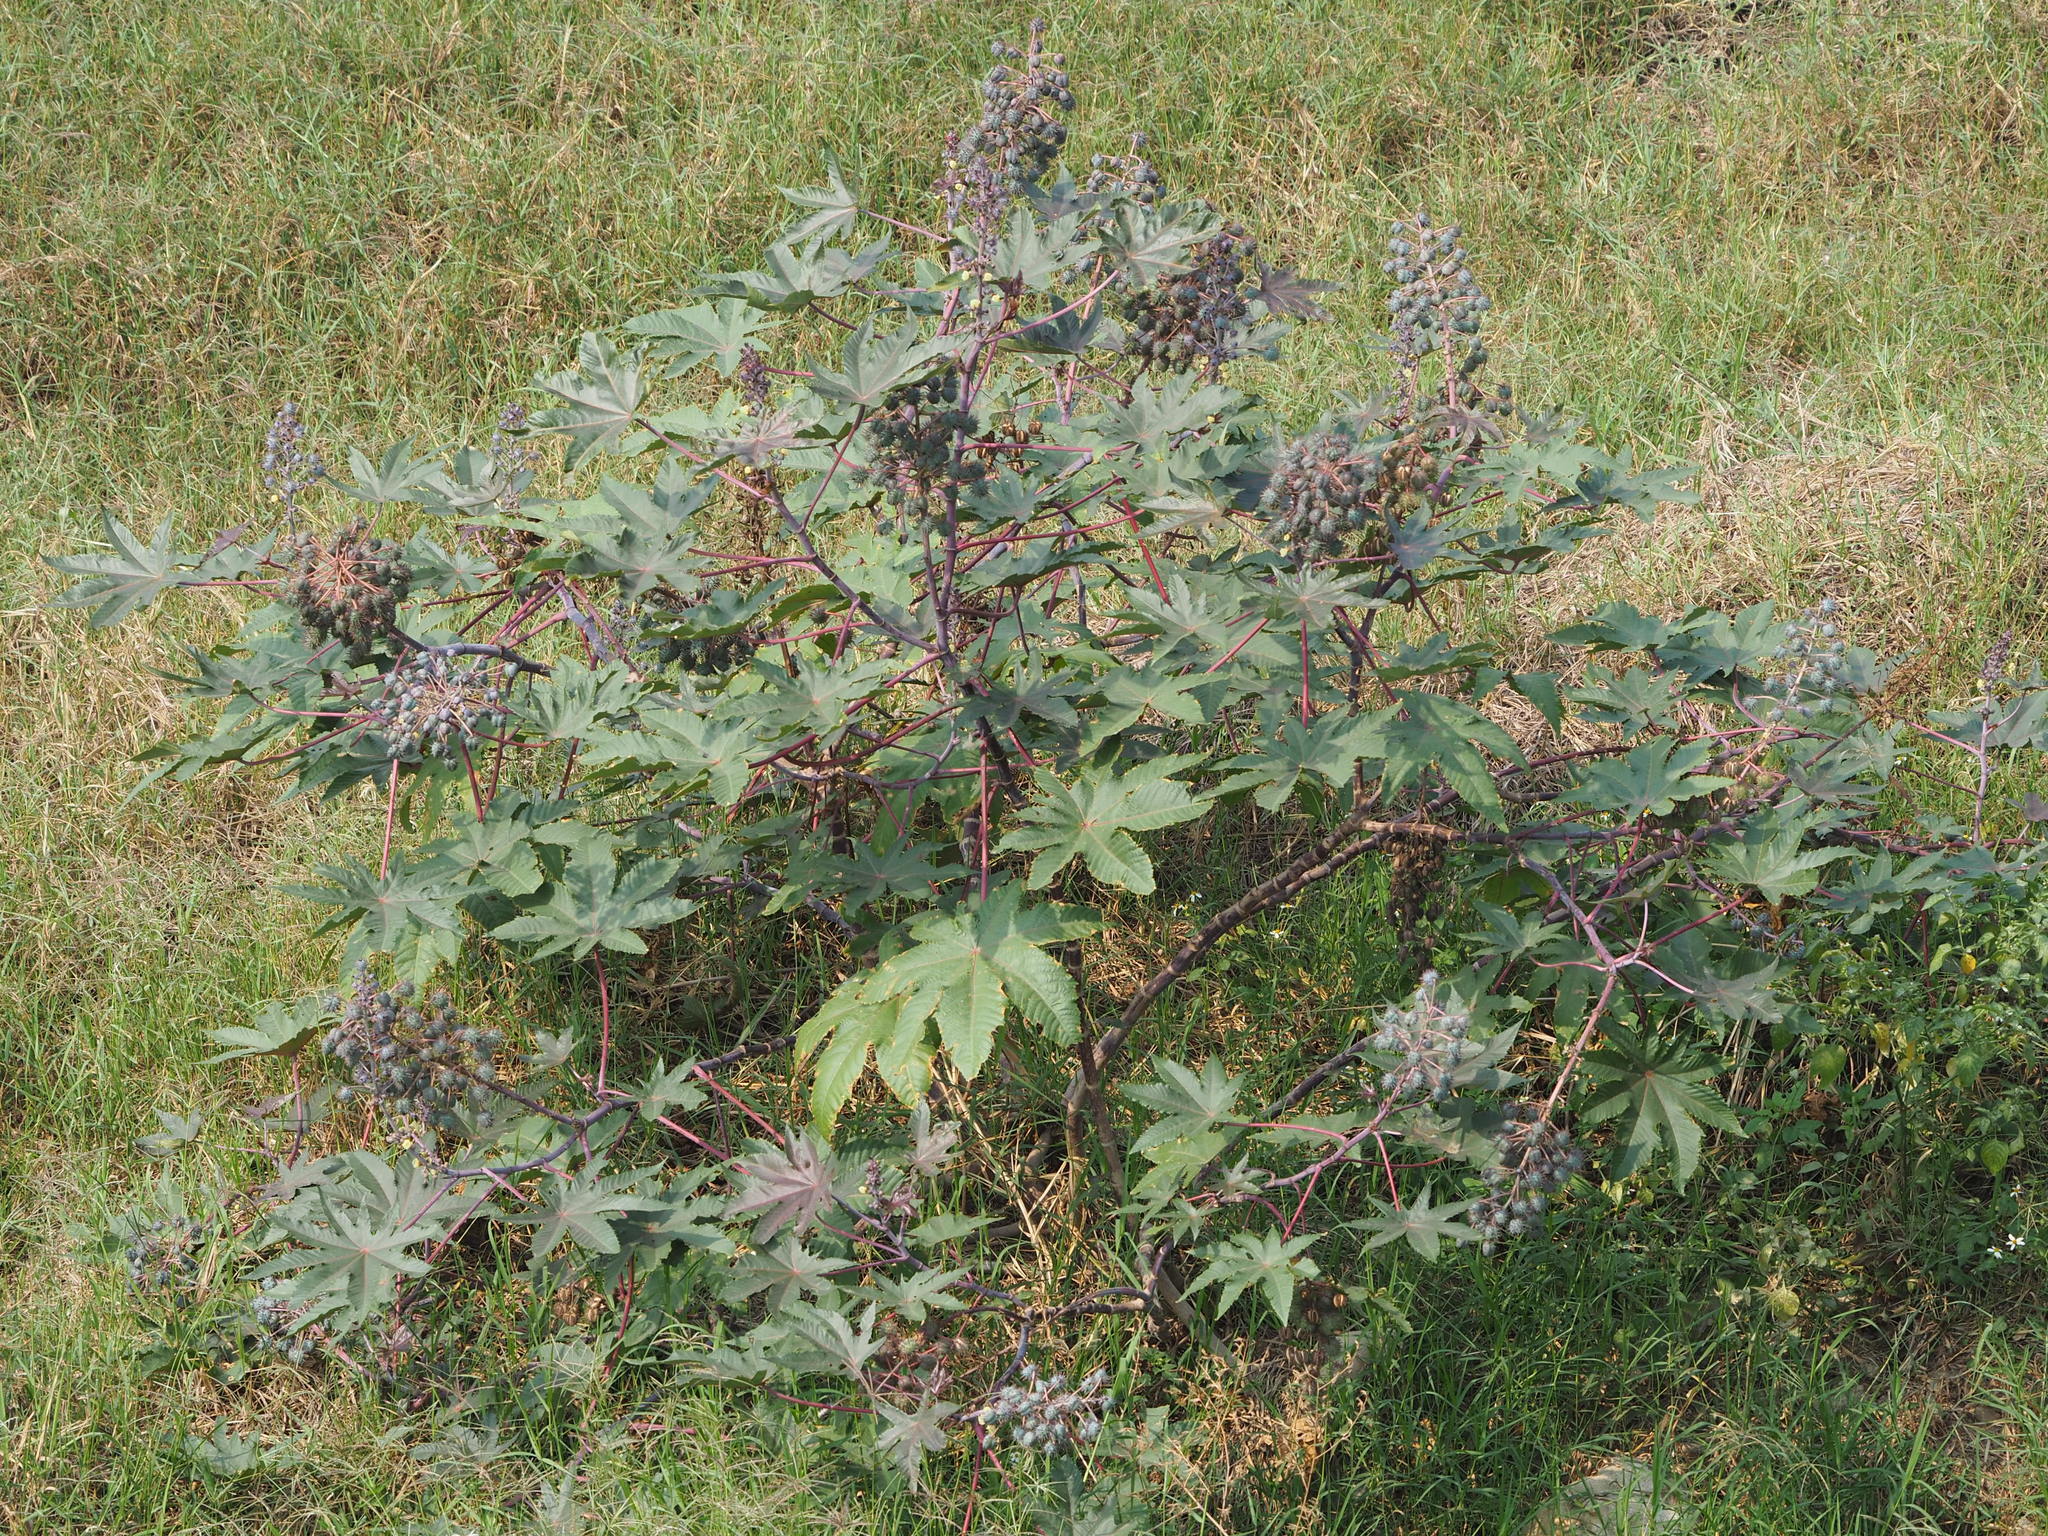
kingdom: Plantae
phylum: Tracheophyta
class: Magnoliopsida
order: Malpighiales
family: Euphorbiaceae
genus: Ricinus
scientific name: Ricinus communis
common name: Castor-oil-plant
